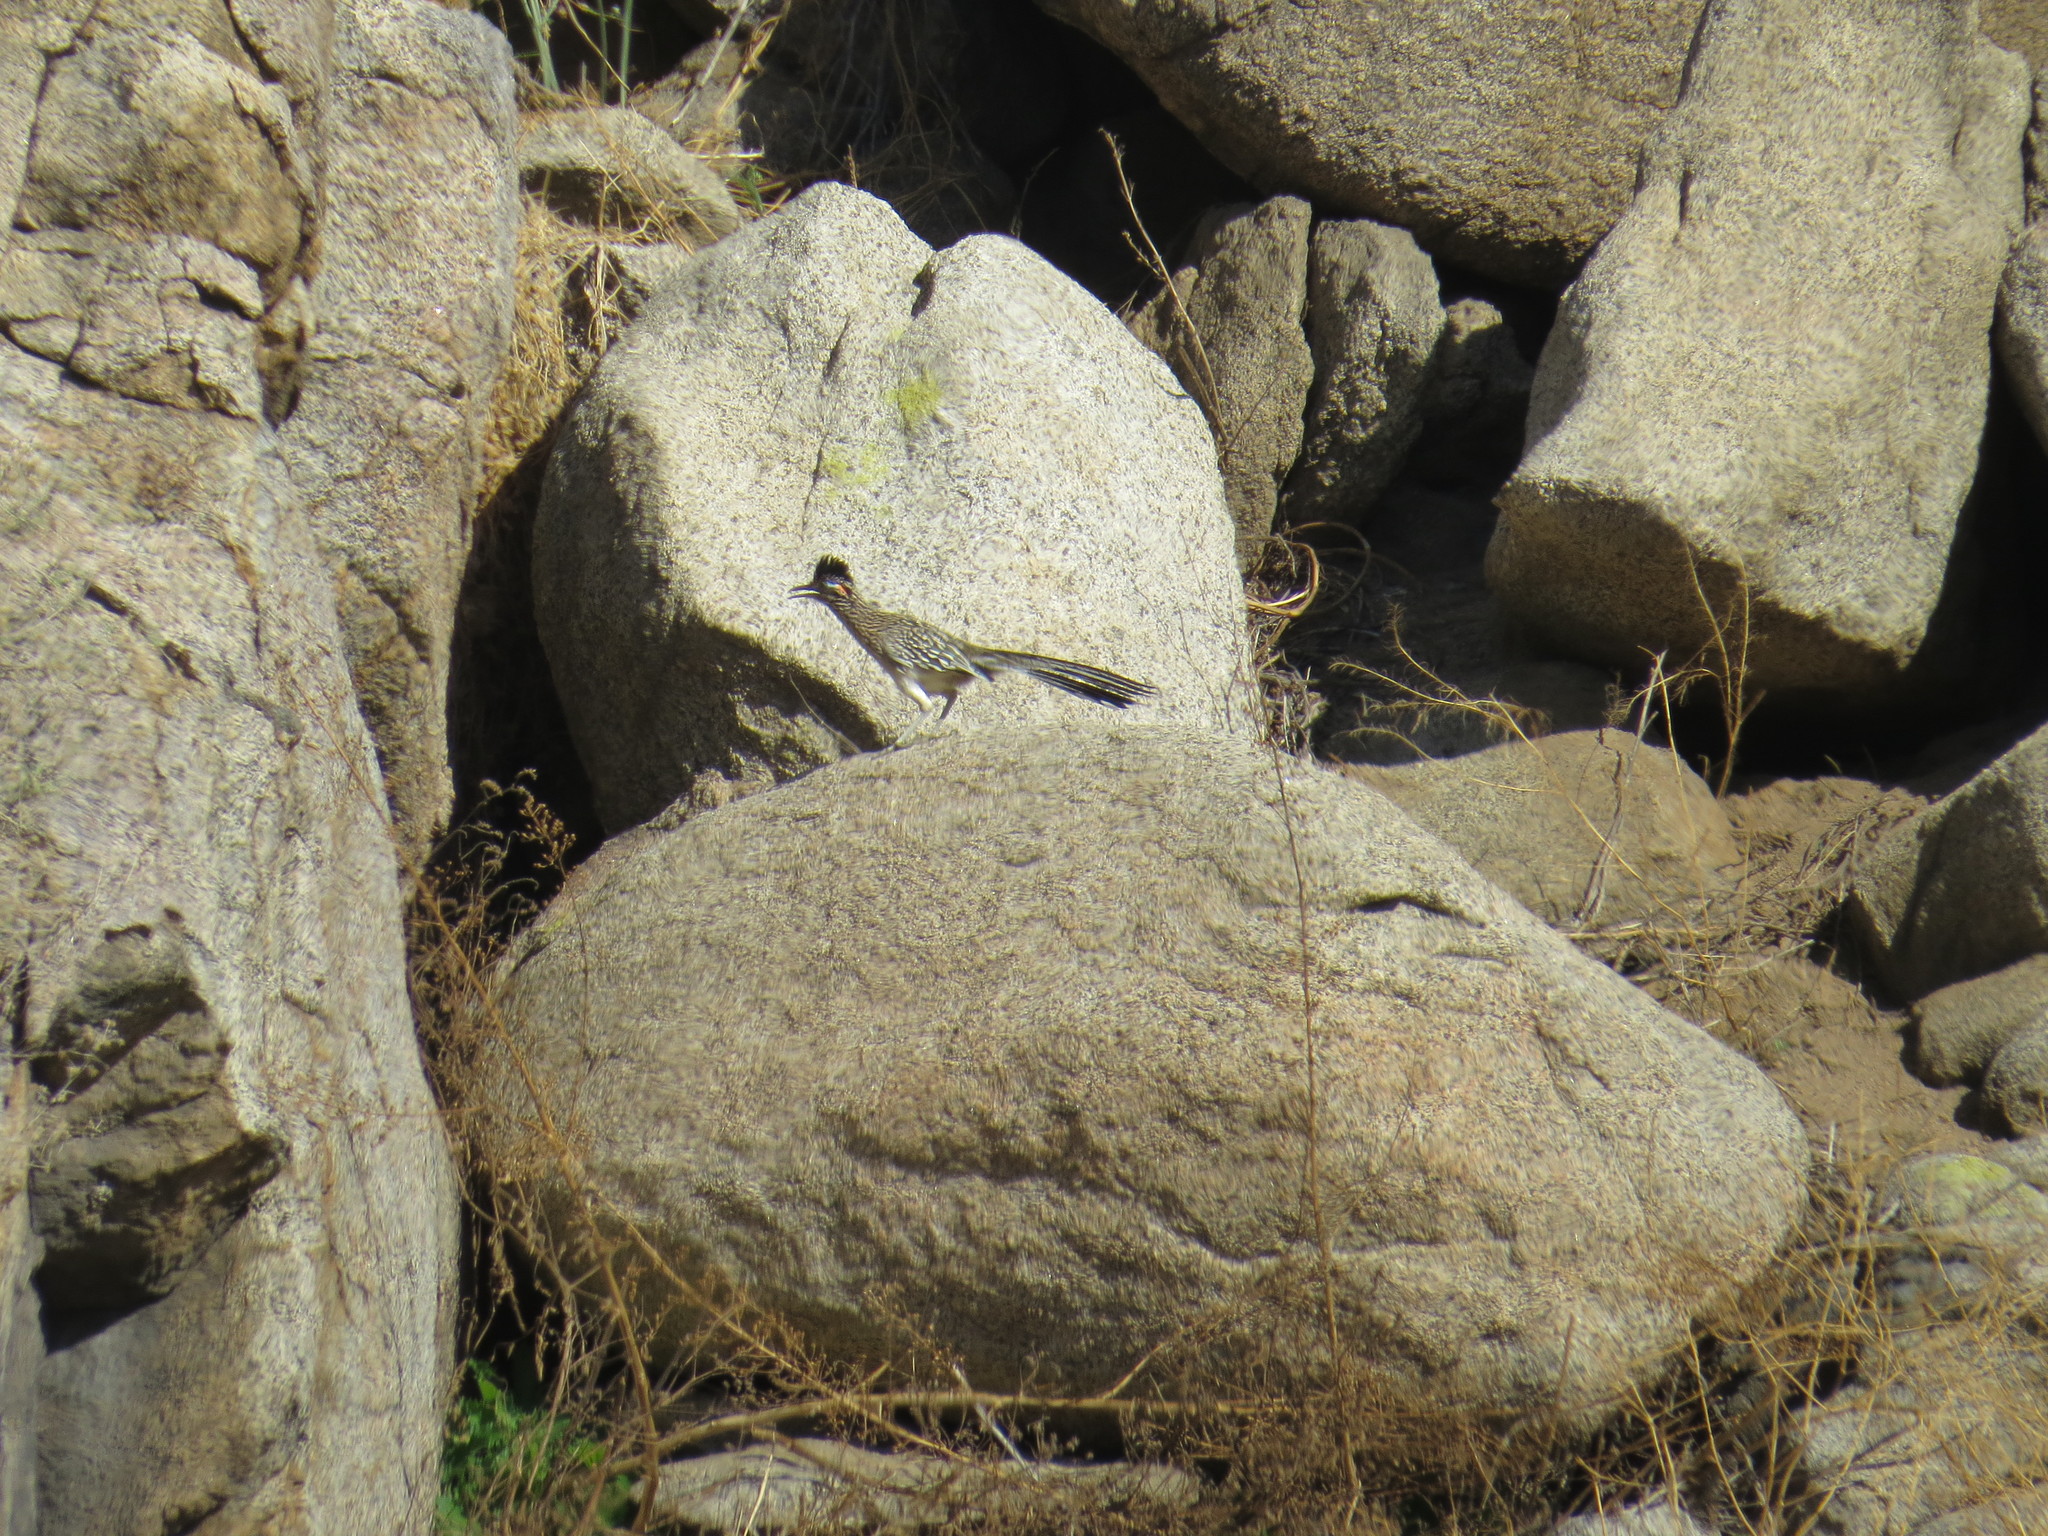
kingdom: Animalia
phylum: Chordata
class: Aves
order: Cuculiformes
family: Cuculidae
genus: Geococcyx
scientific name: Geococcyx californianus
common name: Greater roadrunner
